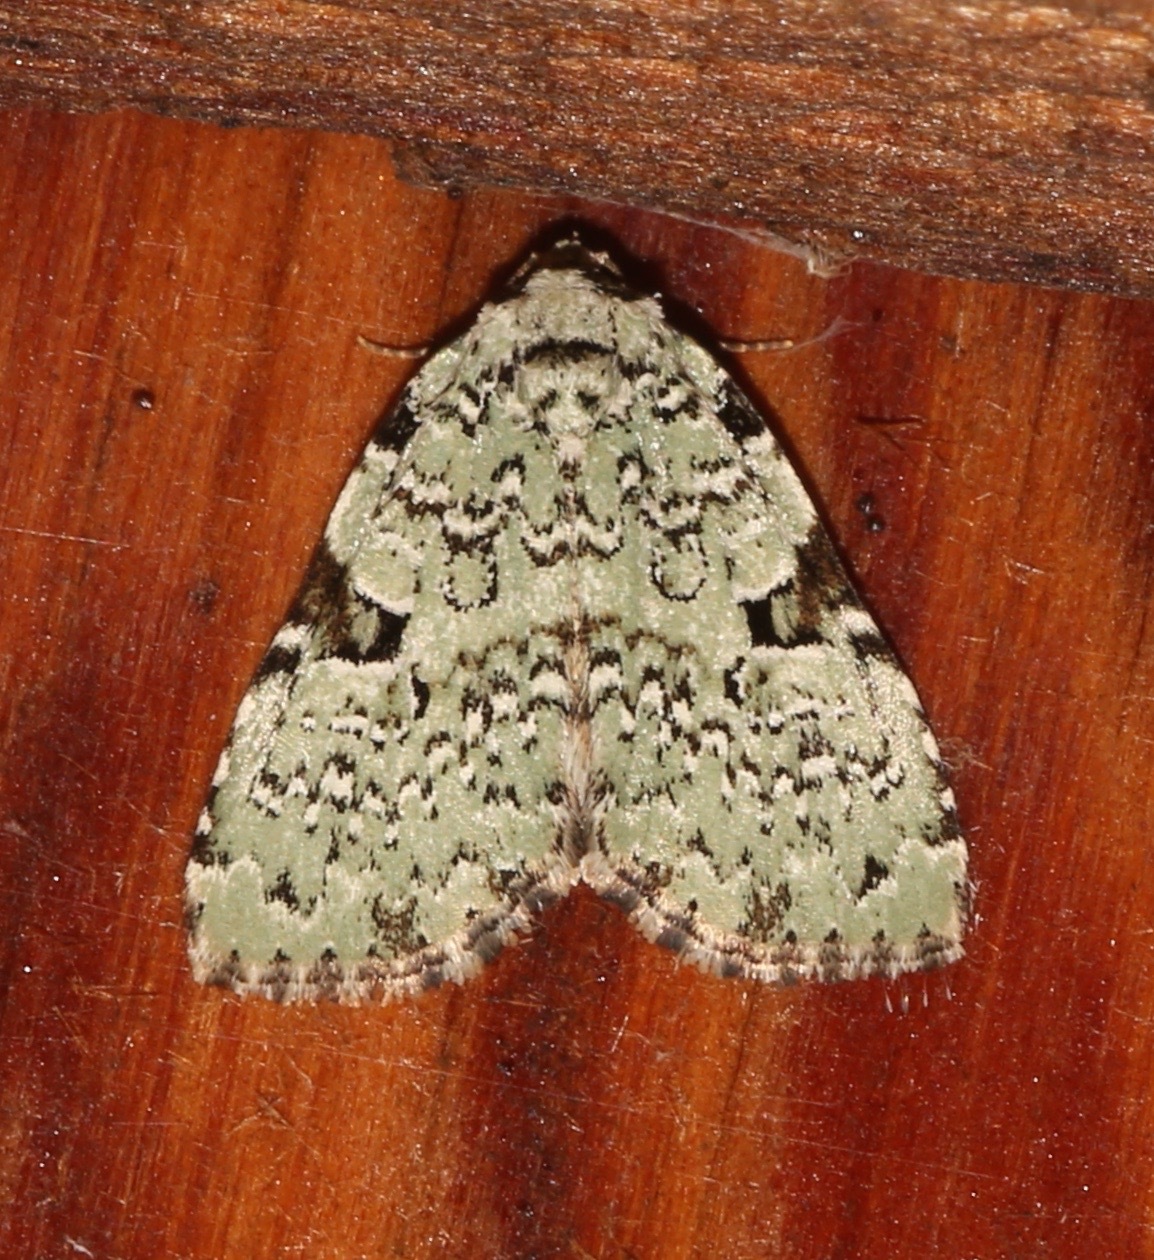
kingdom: Animalia
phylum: Arthropoda
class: Insecta
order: Lepidoptera
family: Noctuidae
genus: Leuconycta
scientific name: Leuconycta diphteroides
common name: Green leuconycta moth
